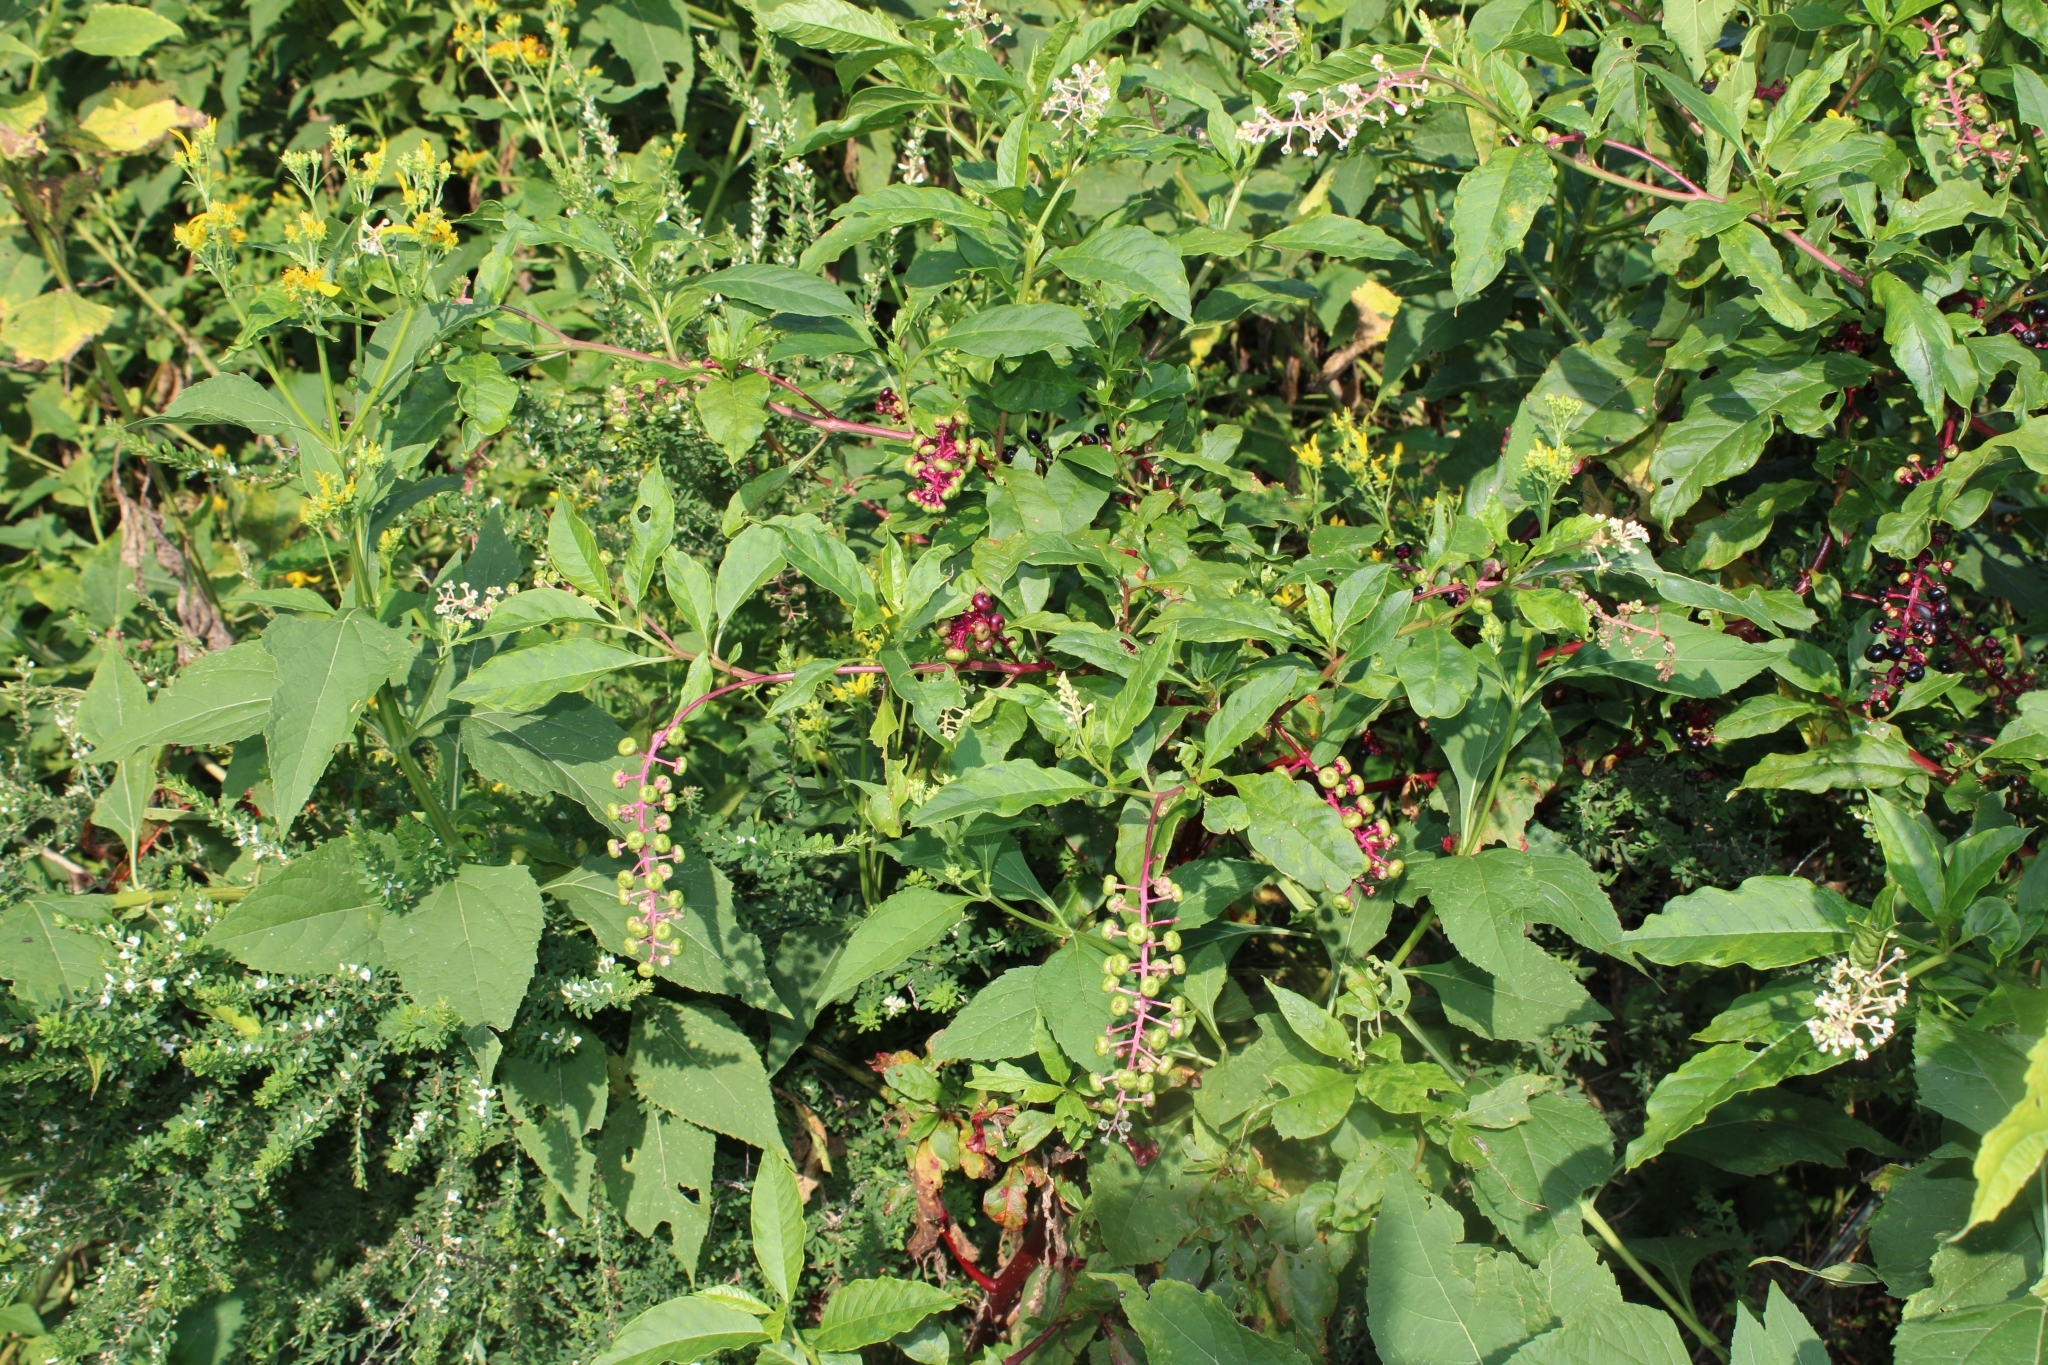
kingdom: Plantae
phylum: Tracheophyta
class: Magnoliopsida
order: Caryophyllales
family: Phytolaccaceae
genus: Phytolacca
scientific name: Phytolacca americana
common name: American pokeweed
